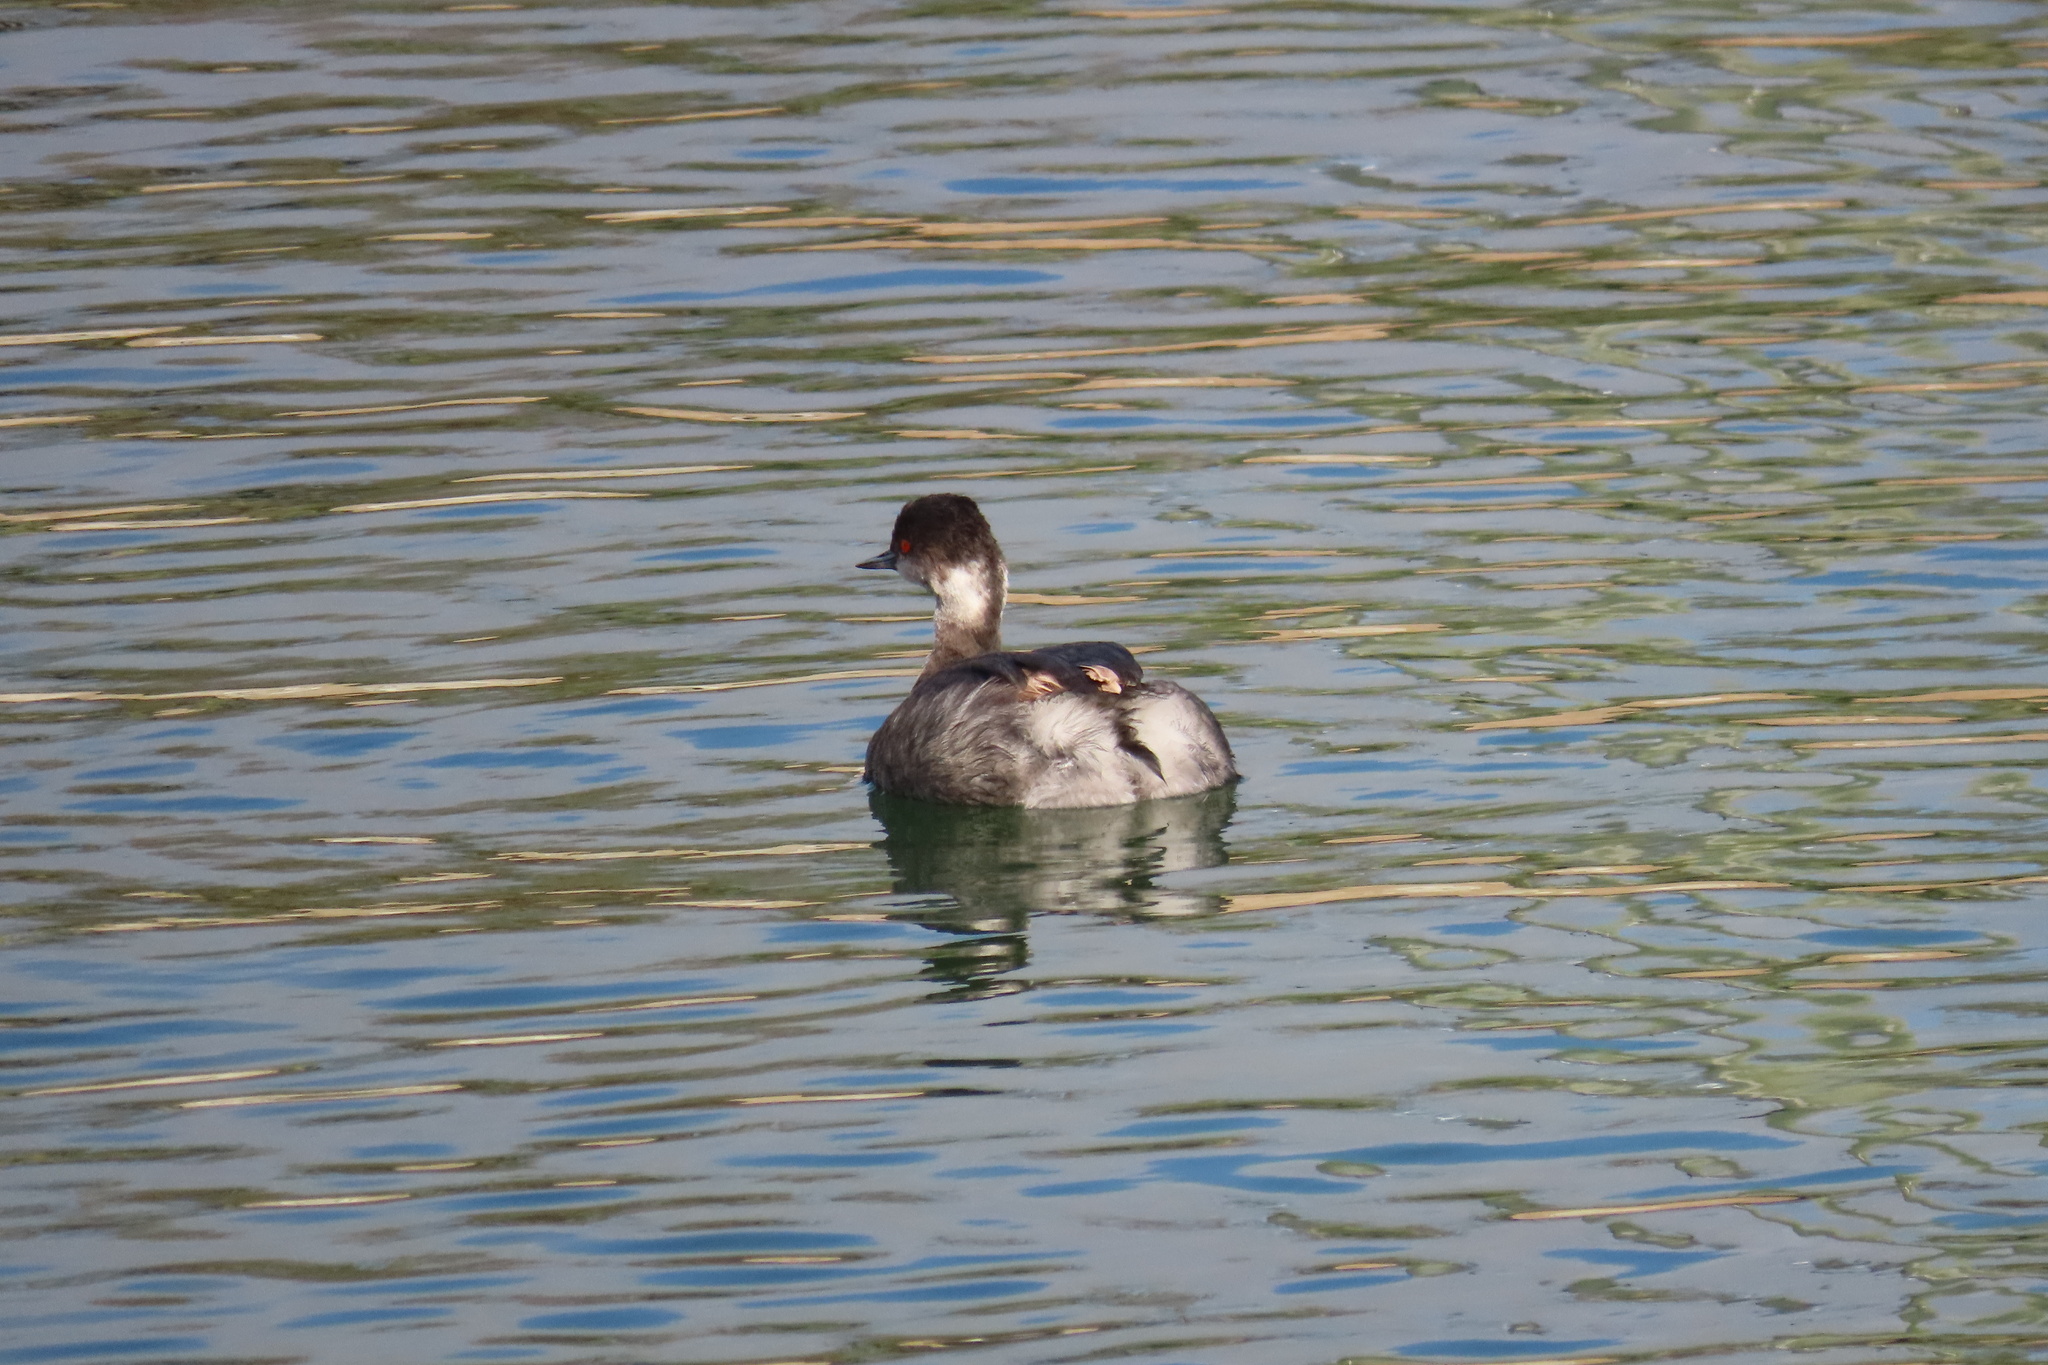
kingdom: Animalia
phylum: Chordata
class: Aves
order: Podicipediformes
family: Podicipedidae
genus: Podiceps
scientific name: Podiceps nigricollis
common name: Black-necked grebe
